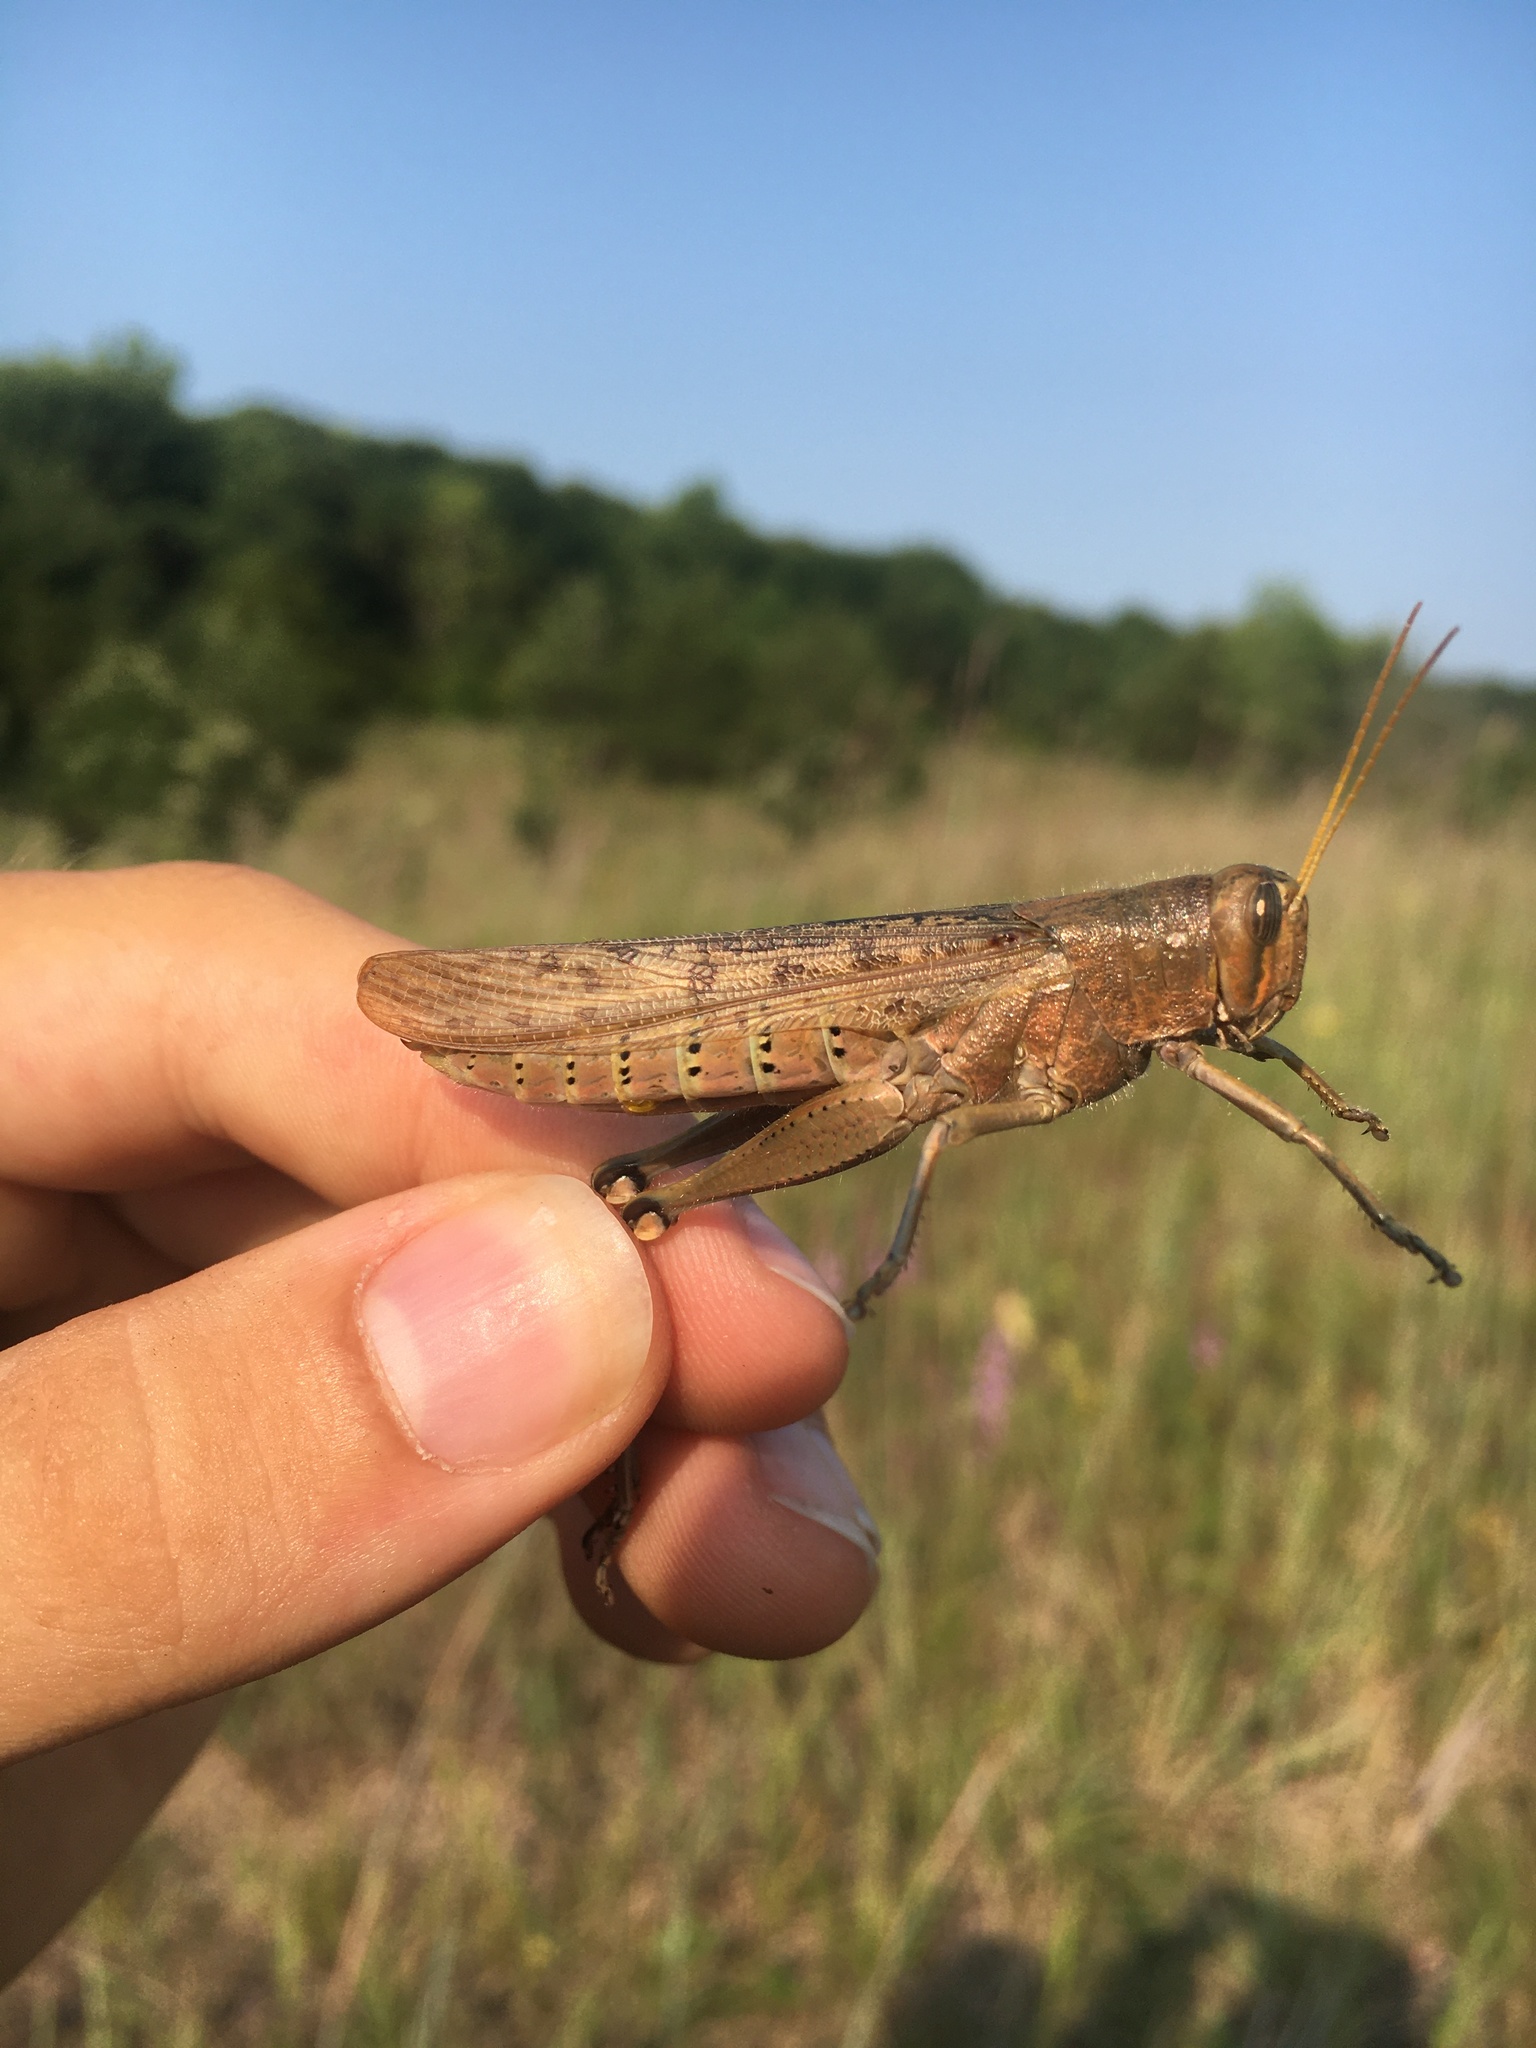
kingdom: Animalia
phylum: Arthropoda
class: Insecta
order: Orthoptera
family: Acrididae
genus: Schistocerca
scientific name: Schistocerca lineata
